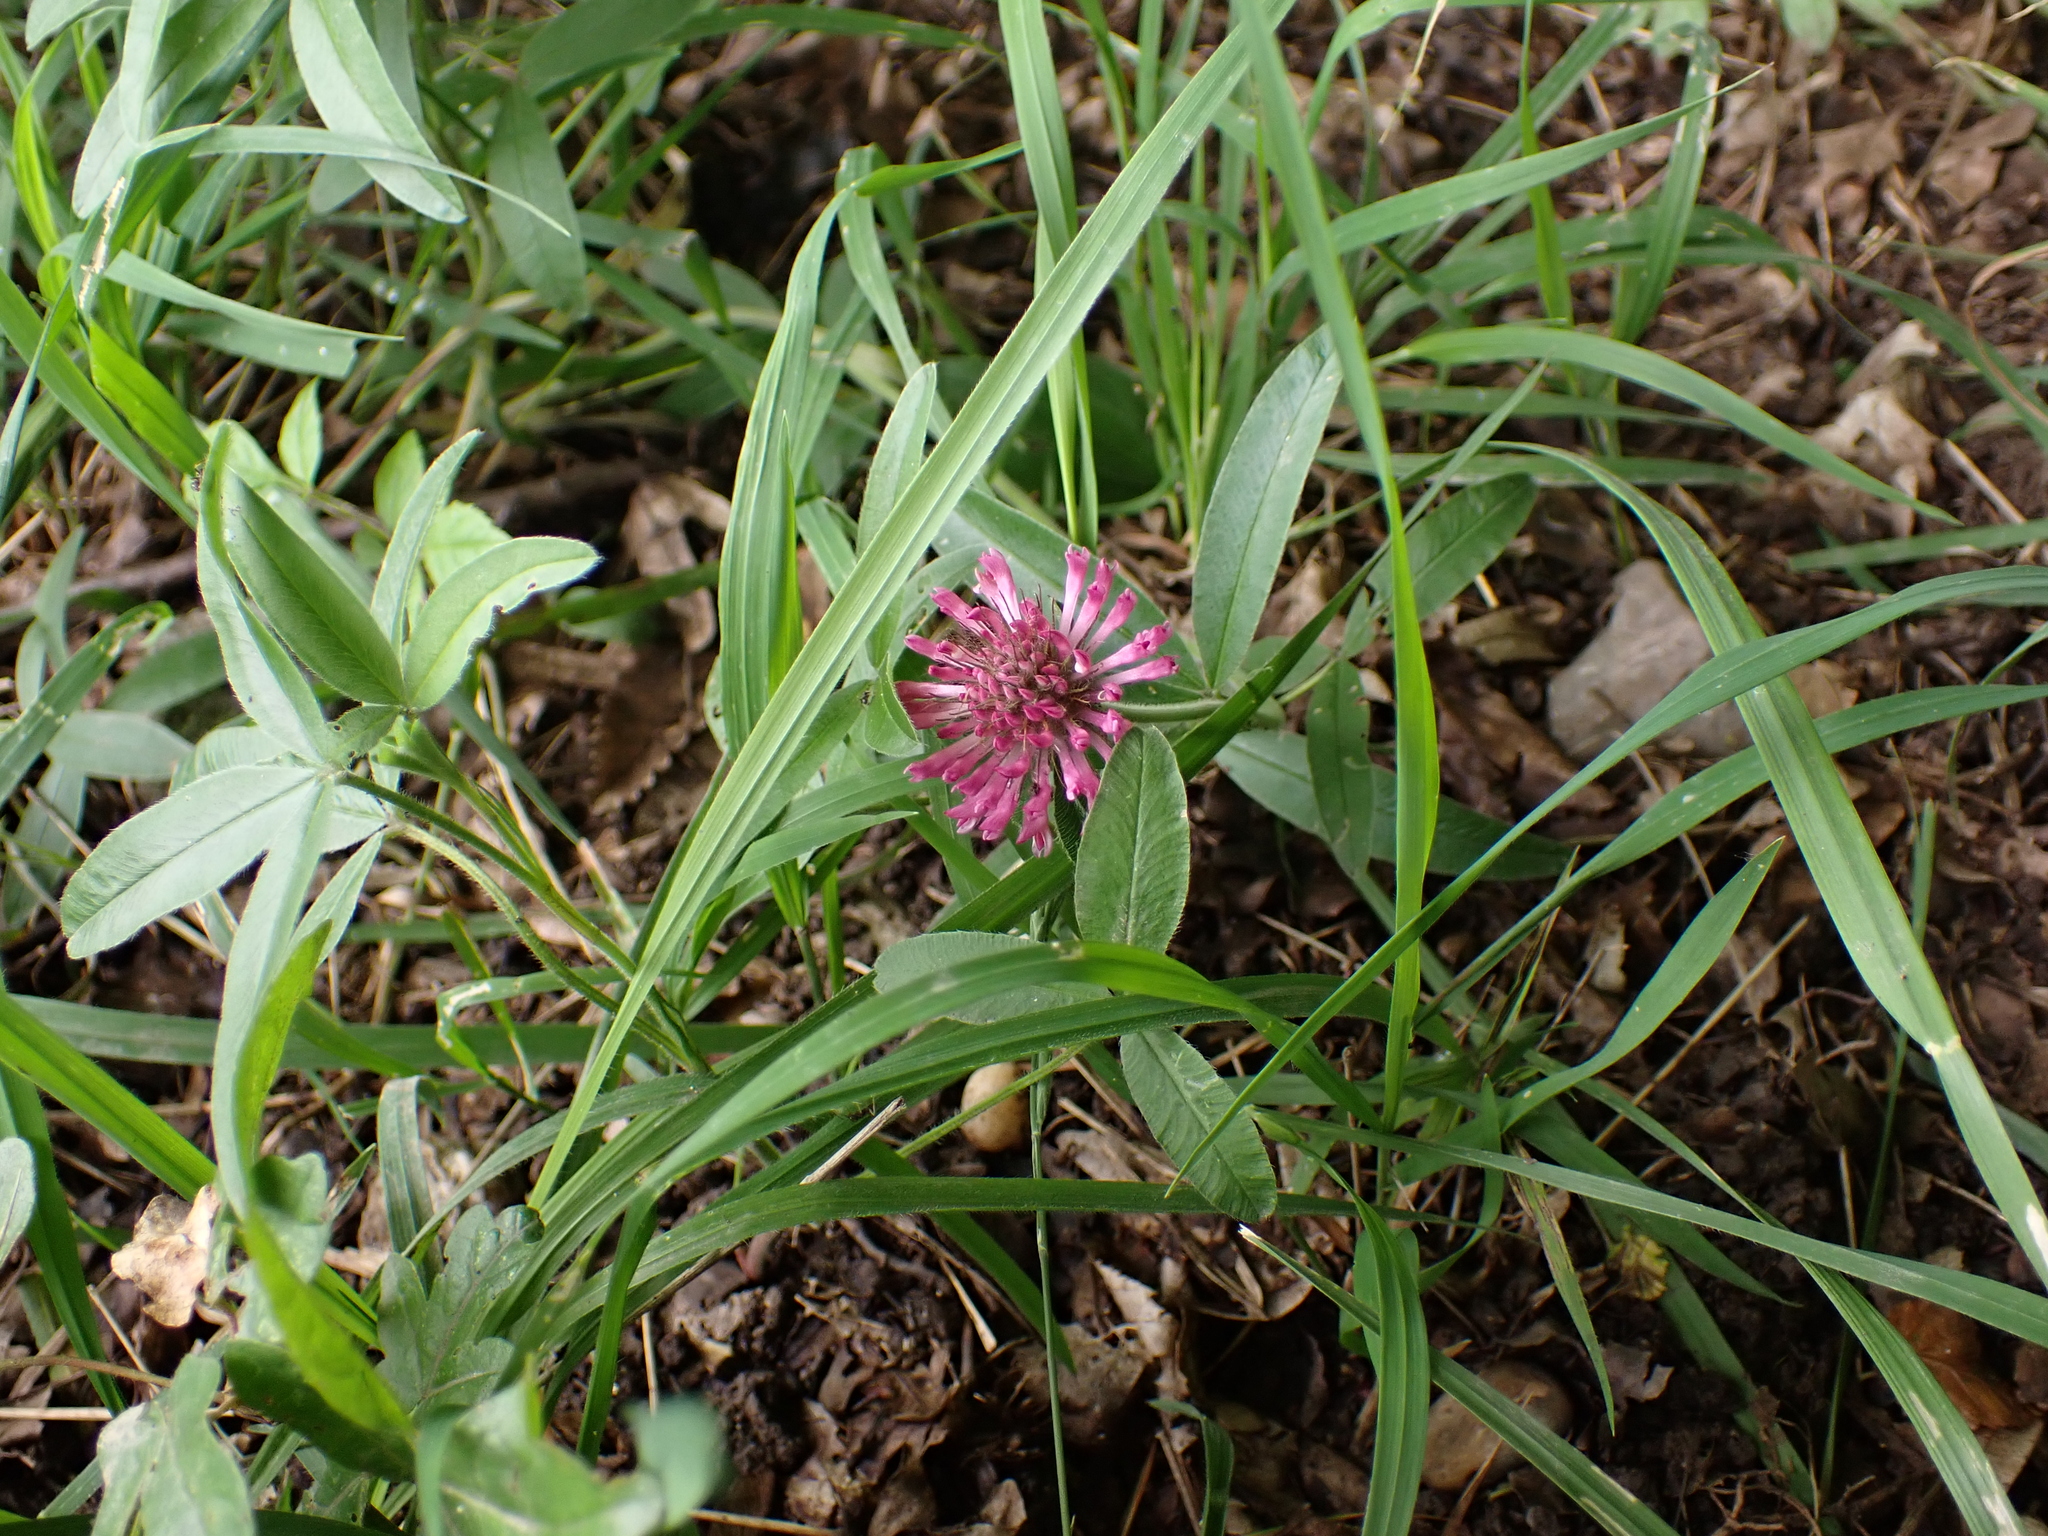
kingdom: Plantae
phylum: Tracheophyta
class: Magnoliopsida
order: Fabales
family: Fabaceae
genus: Trifolium
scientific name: Trifolium alpestre
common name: Owl-head clover
